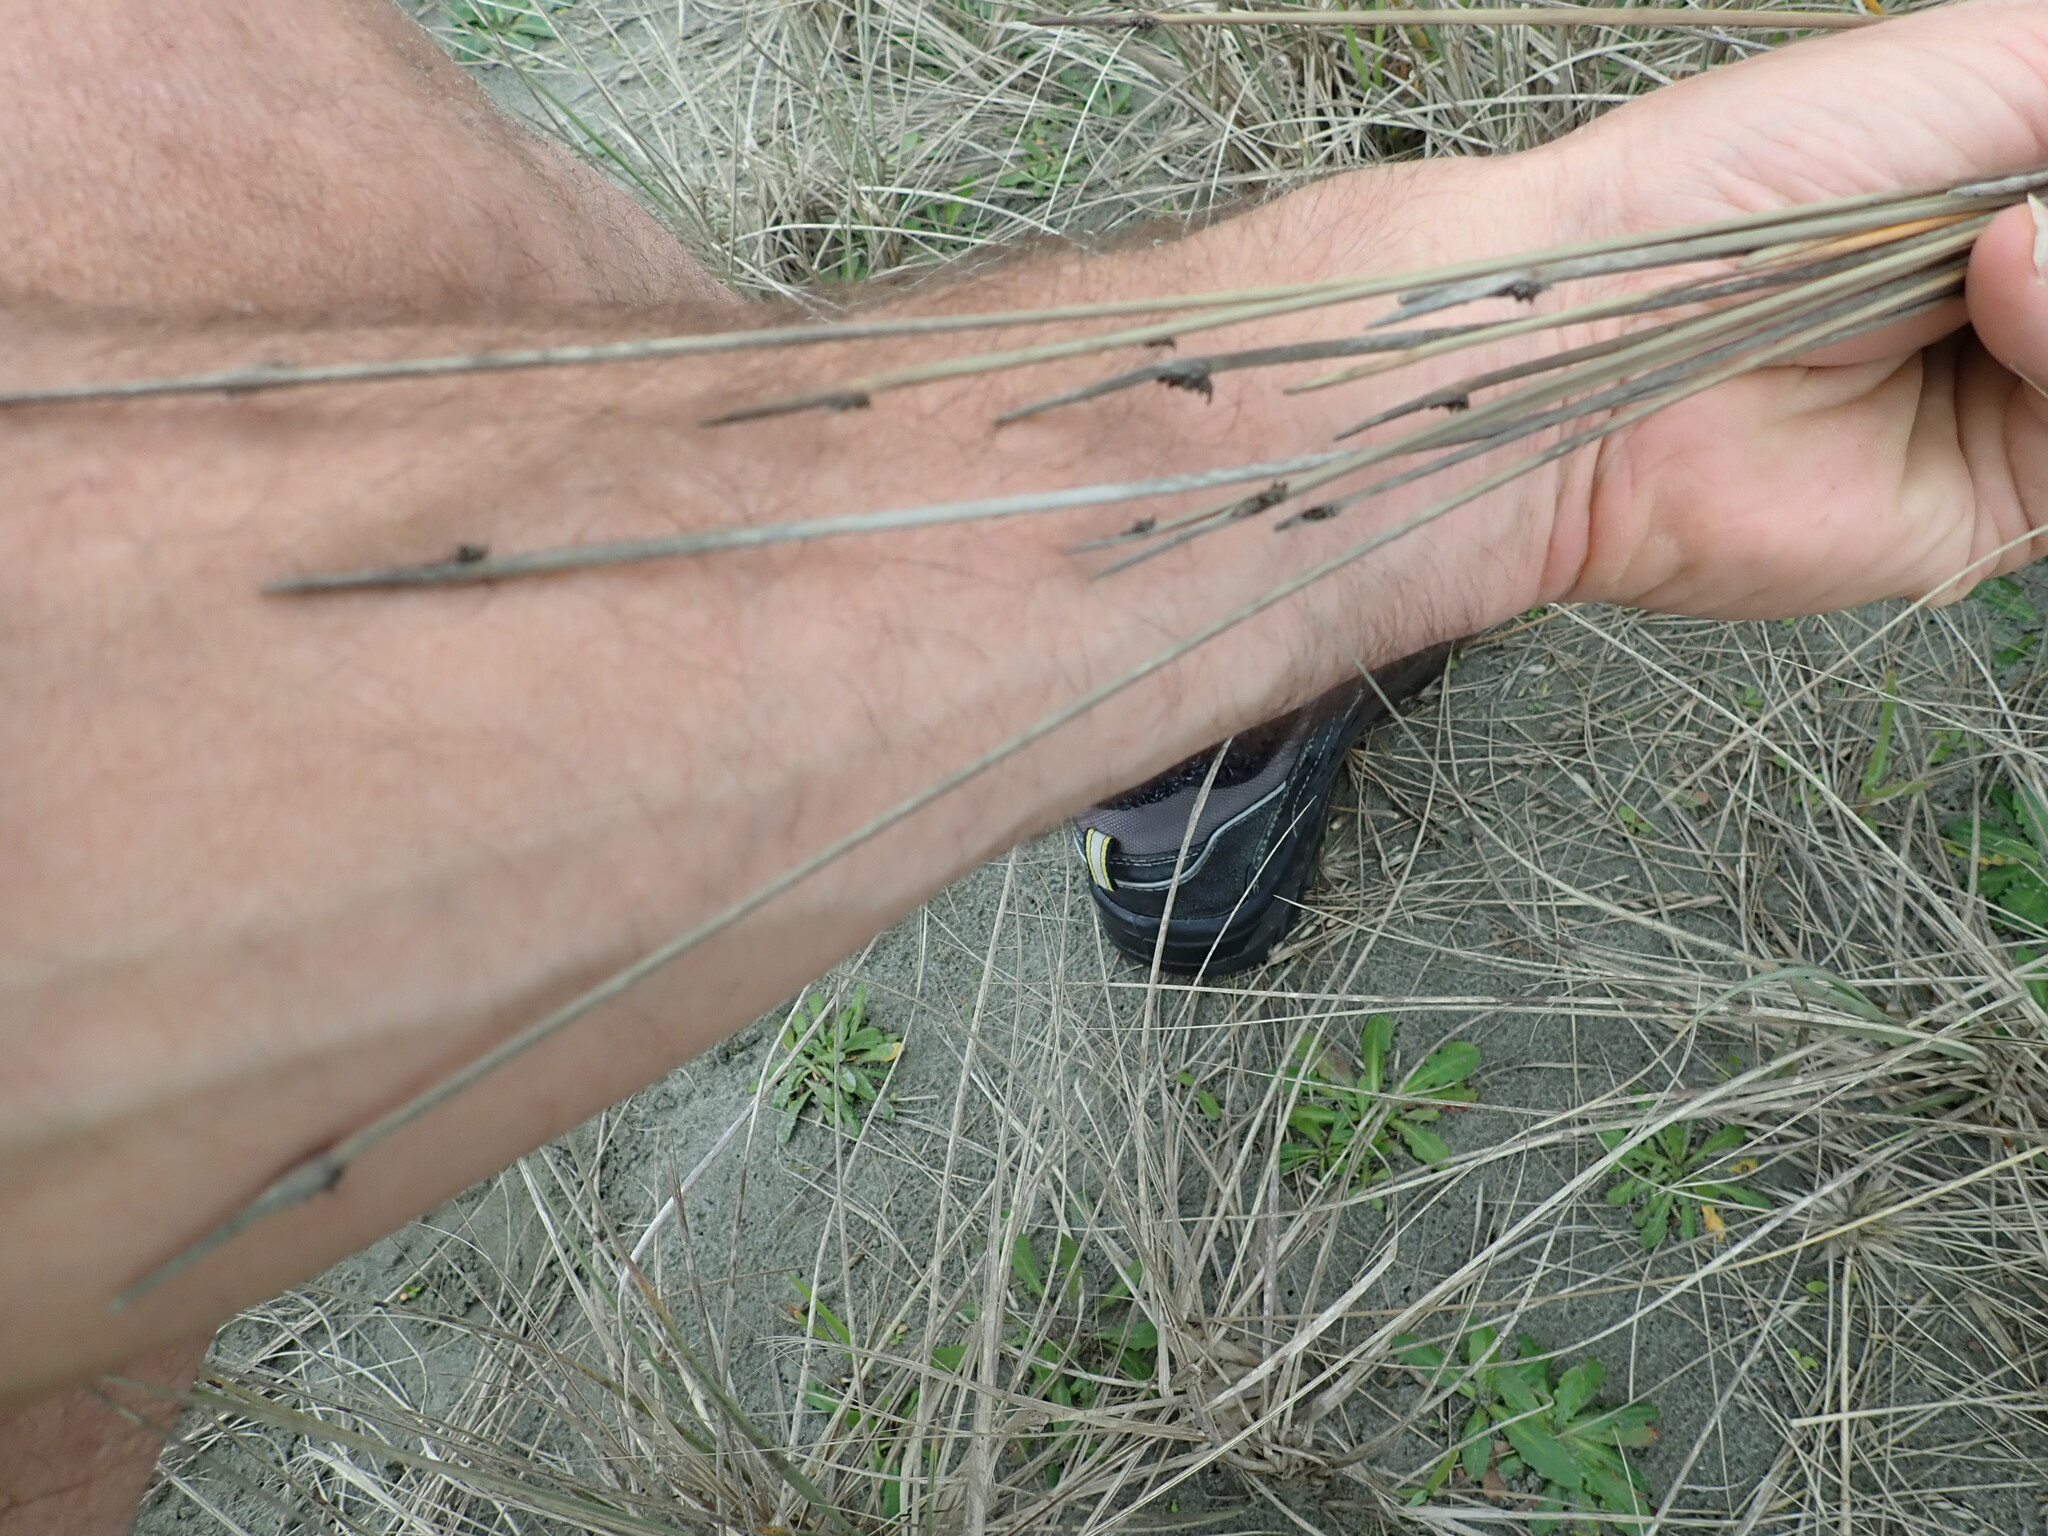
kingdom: Plantae
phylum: Tracheophyta
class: Liliopsida
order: Poales
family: Cyperaceae
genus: Ficinia
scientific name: Ficinia nodosa
